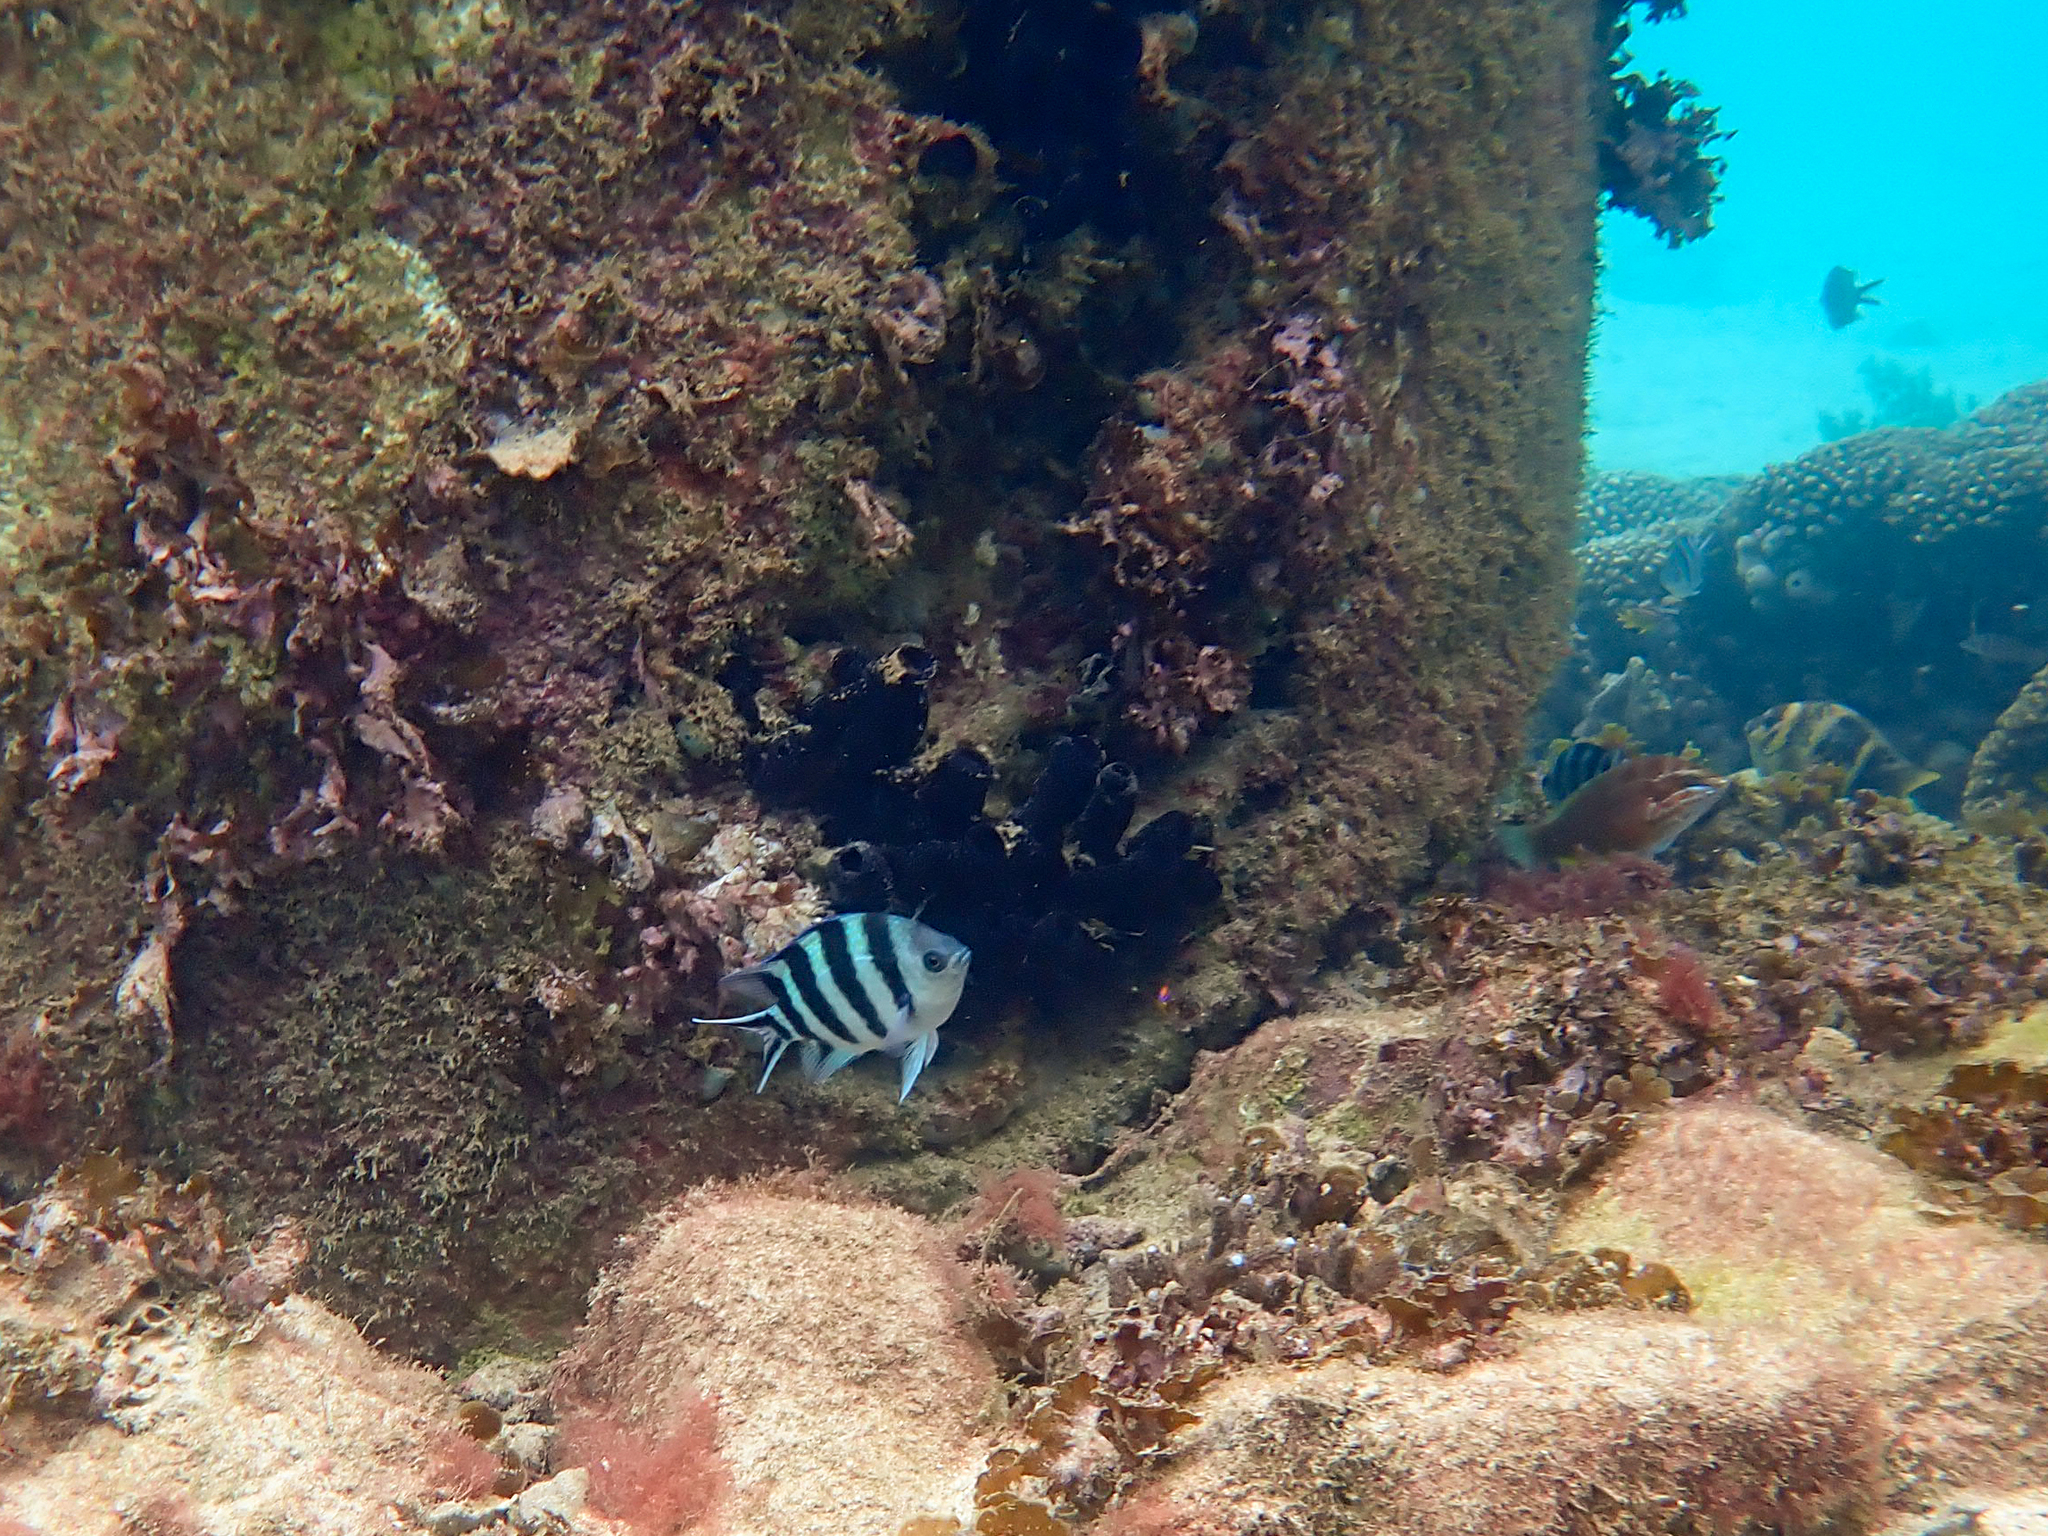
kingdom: Animalia
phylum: Chordata
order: Perciformes
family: Pomacentridae
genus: Abudefduf
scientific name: Abudefduf sexfasciatus
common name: Scissortail sergeant
